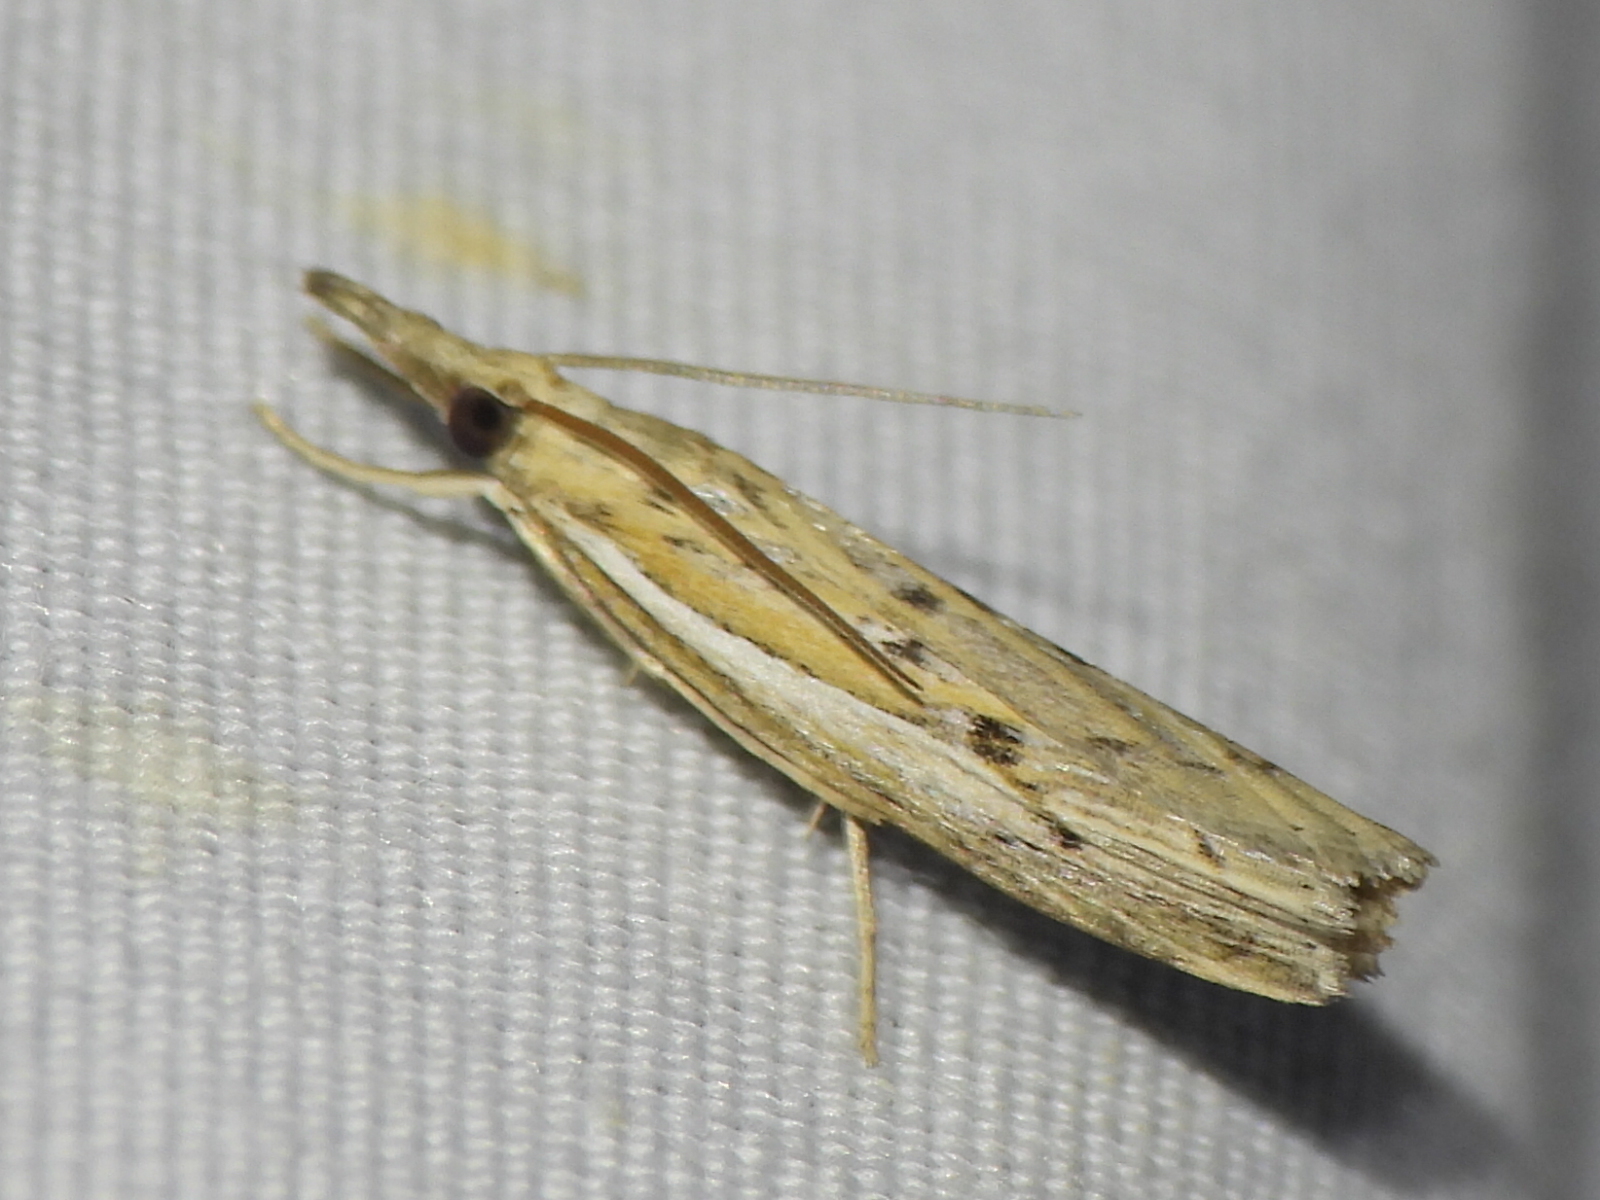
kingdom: Animalia
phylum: Arthropoda
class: Insecta
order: Lepidoptera
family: Crambidae
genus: Fissicrambus
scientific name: Fissicrambus fissiradiellus
